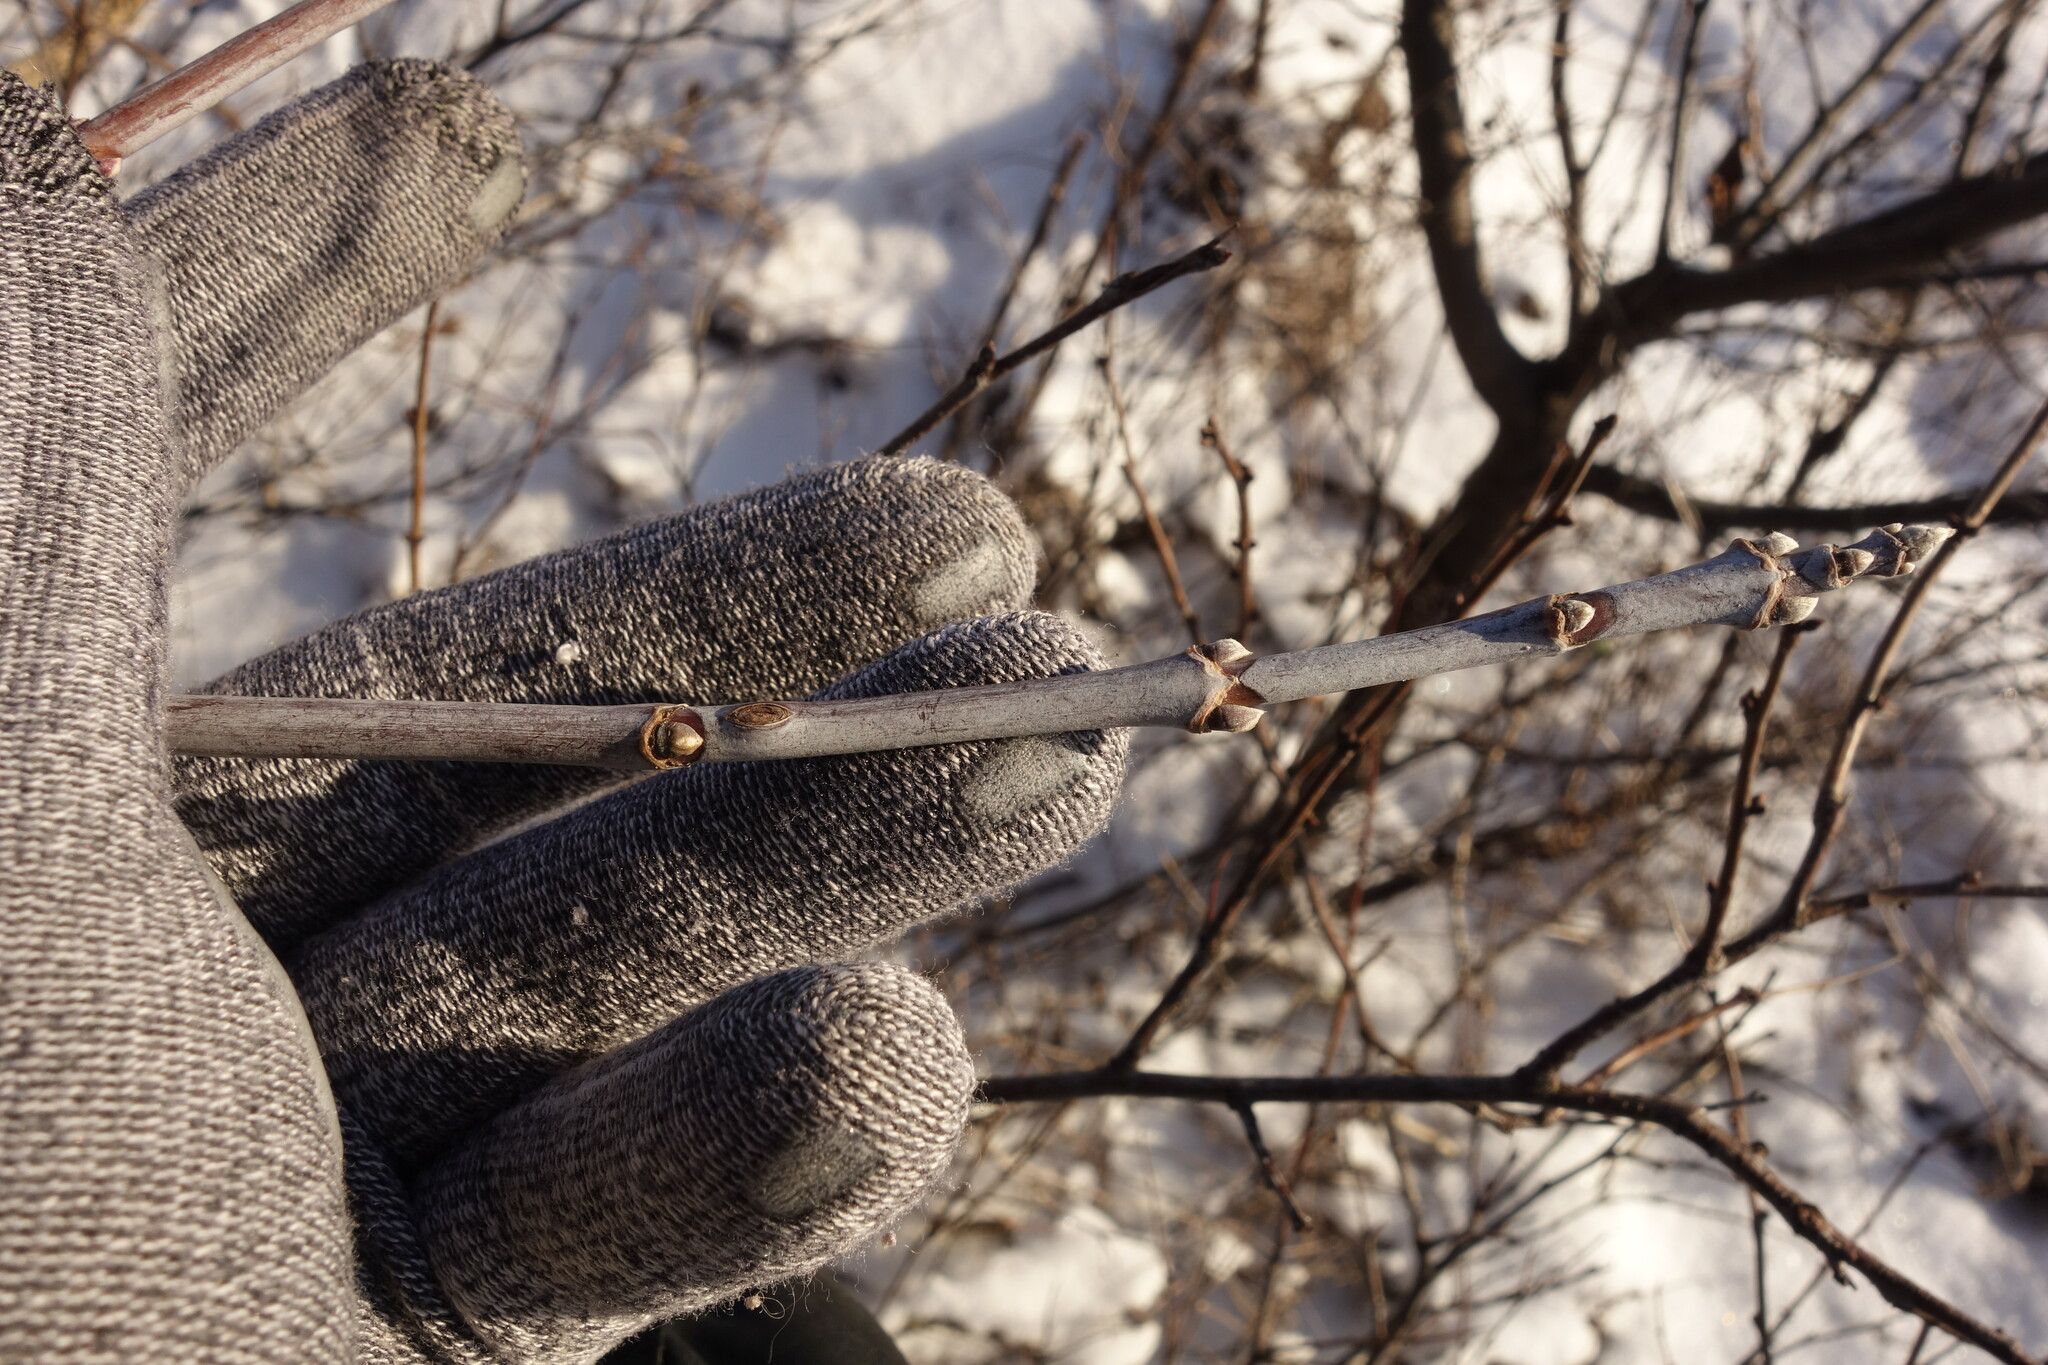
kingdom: Plantae
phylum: Tracheophyta
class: Magnoliopsida
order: Sapindales
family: Sapindaceae
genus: Acer
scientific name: Acer negundo
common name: Ashleaf maple
